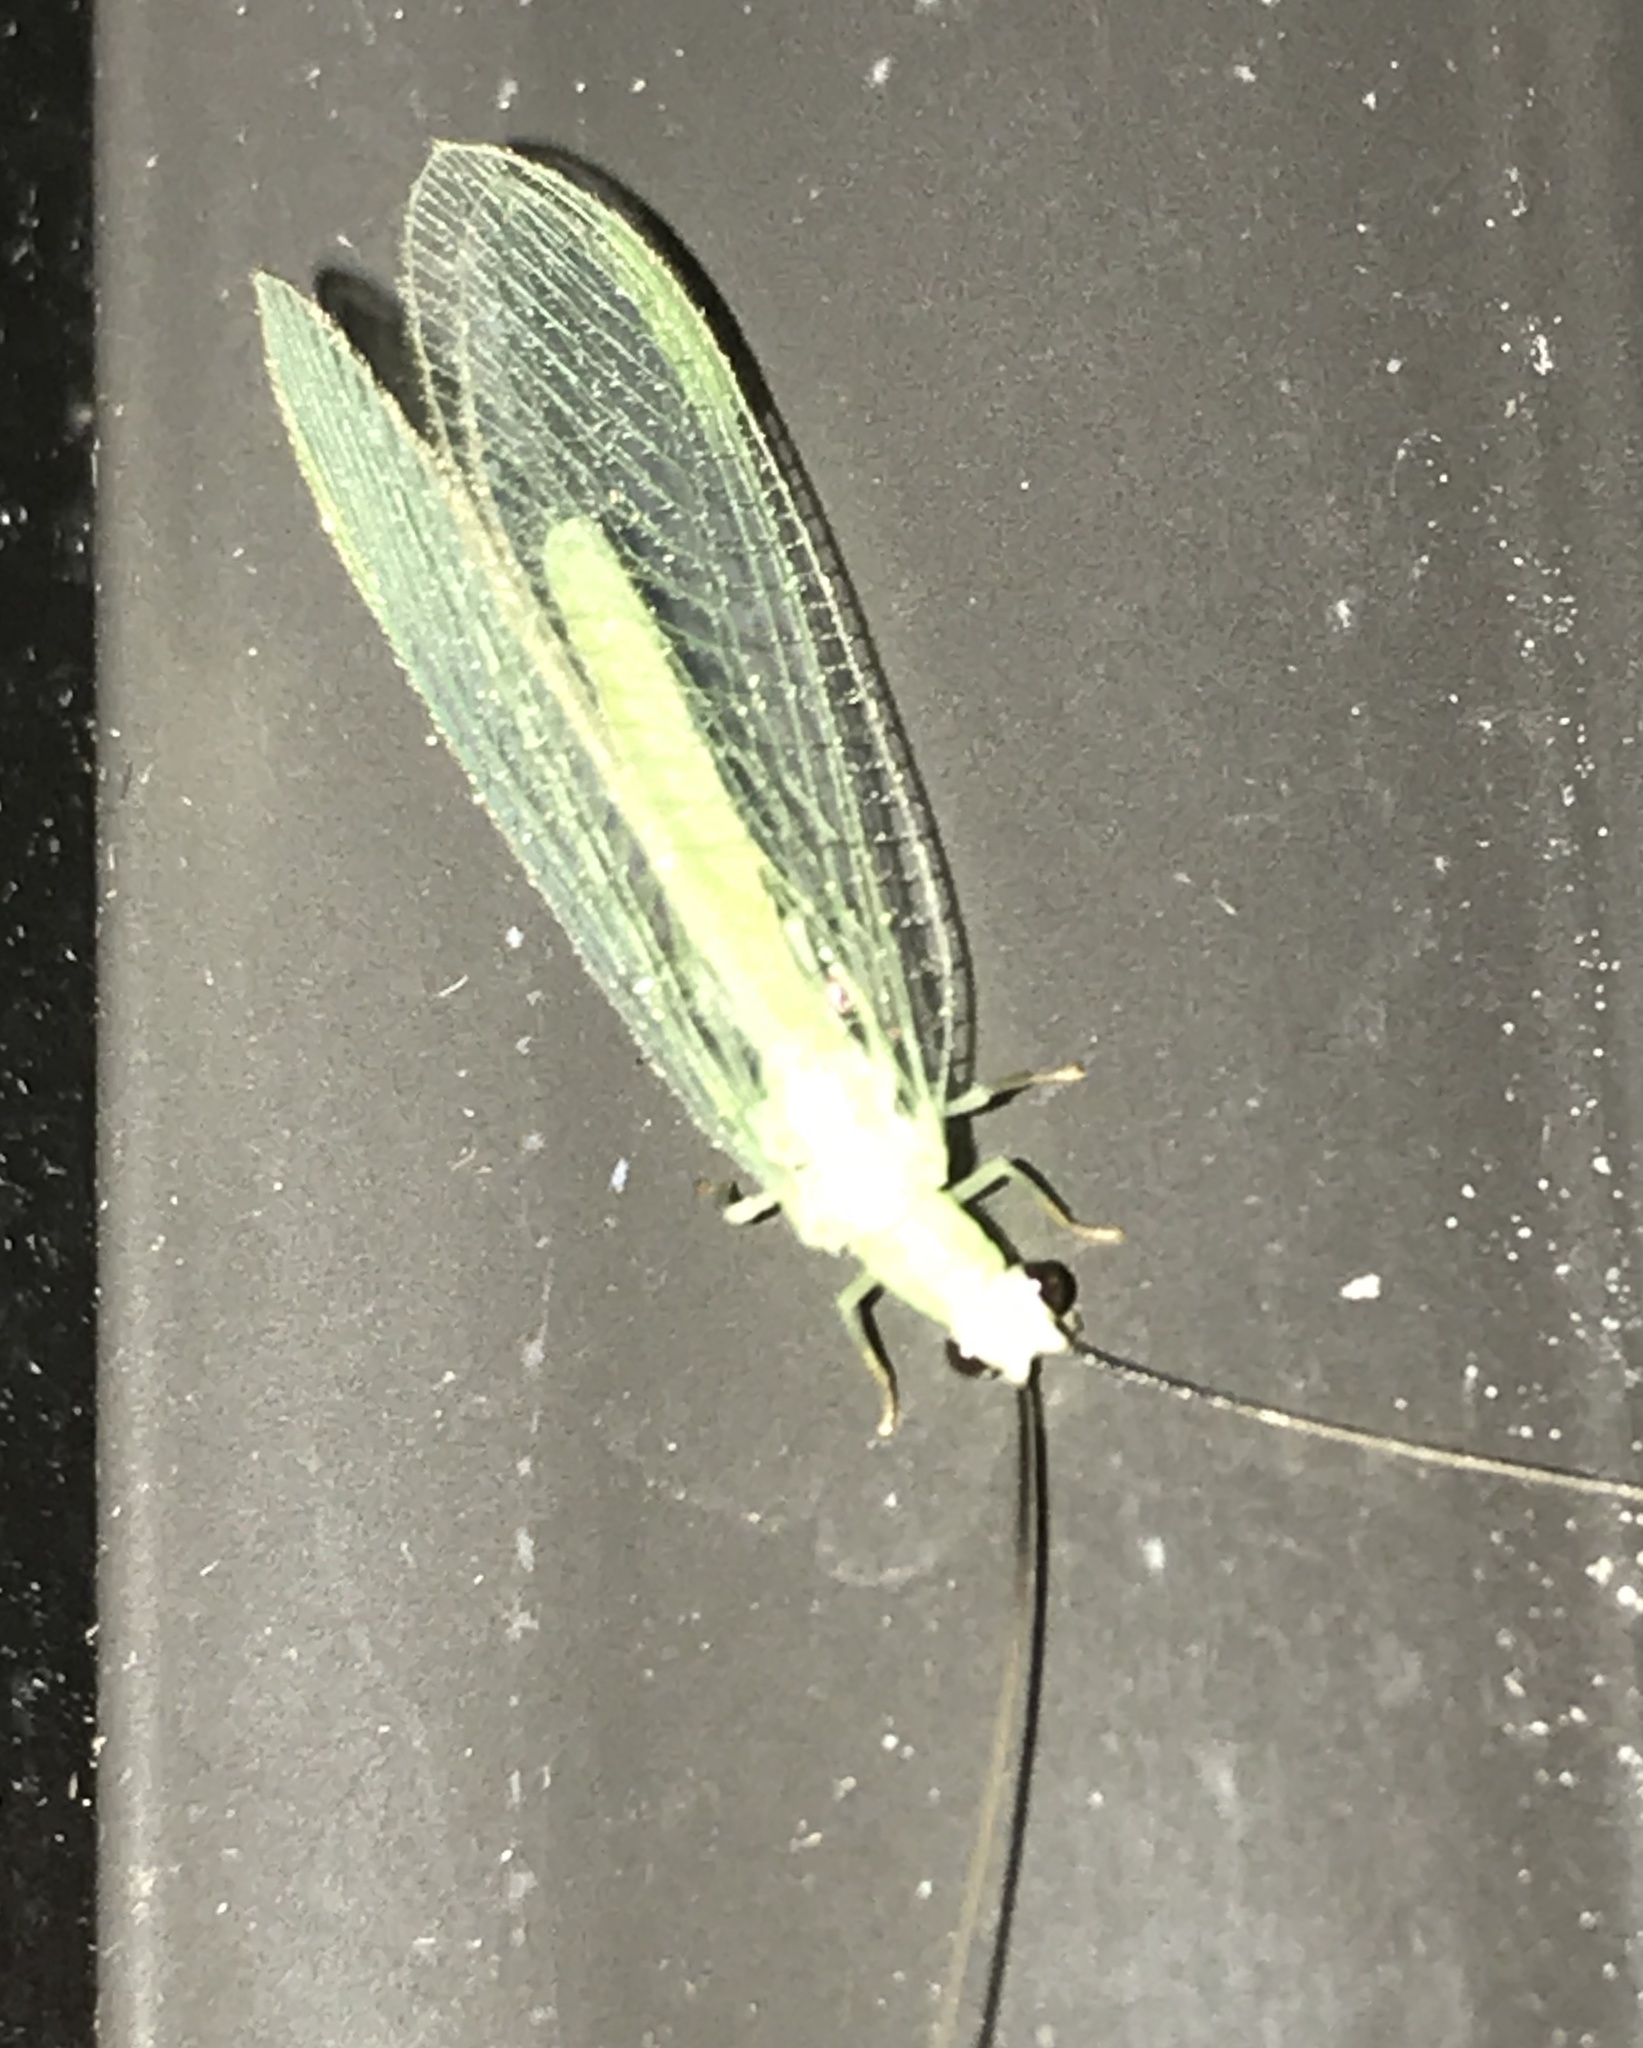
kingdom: Animalia
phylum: Arthropoda
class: Insecta
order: Neuroptera
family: Chrysopidae
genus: Chrysopa
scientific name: Chrysopa nigricornis
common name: Black-horned green lacewing
